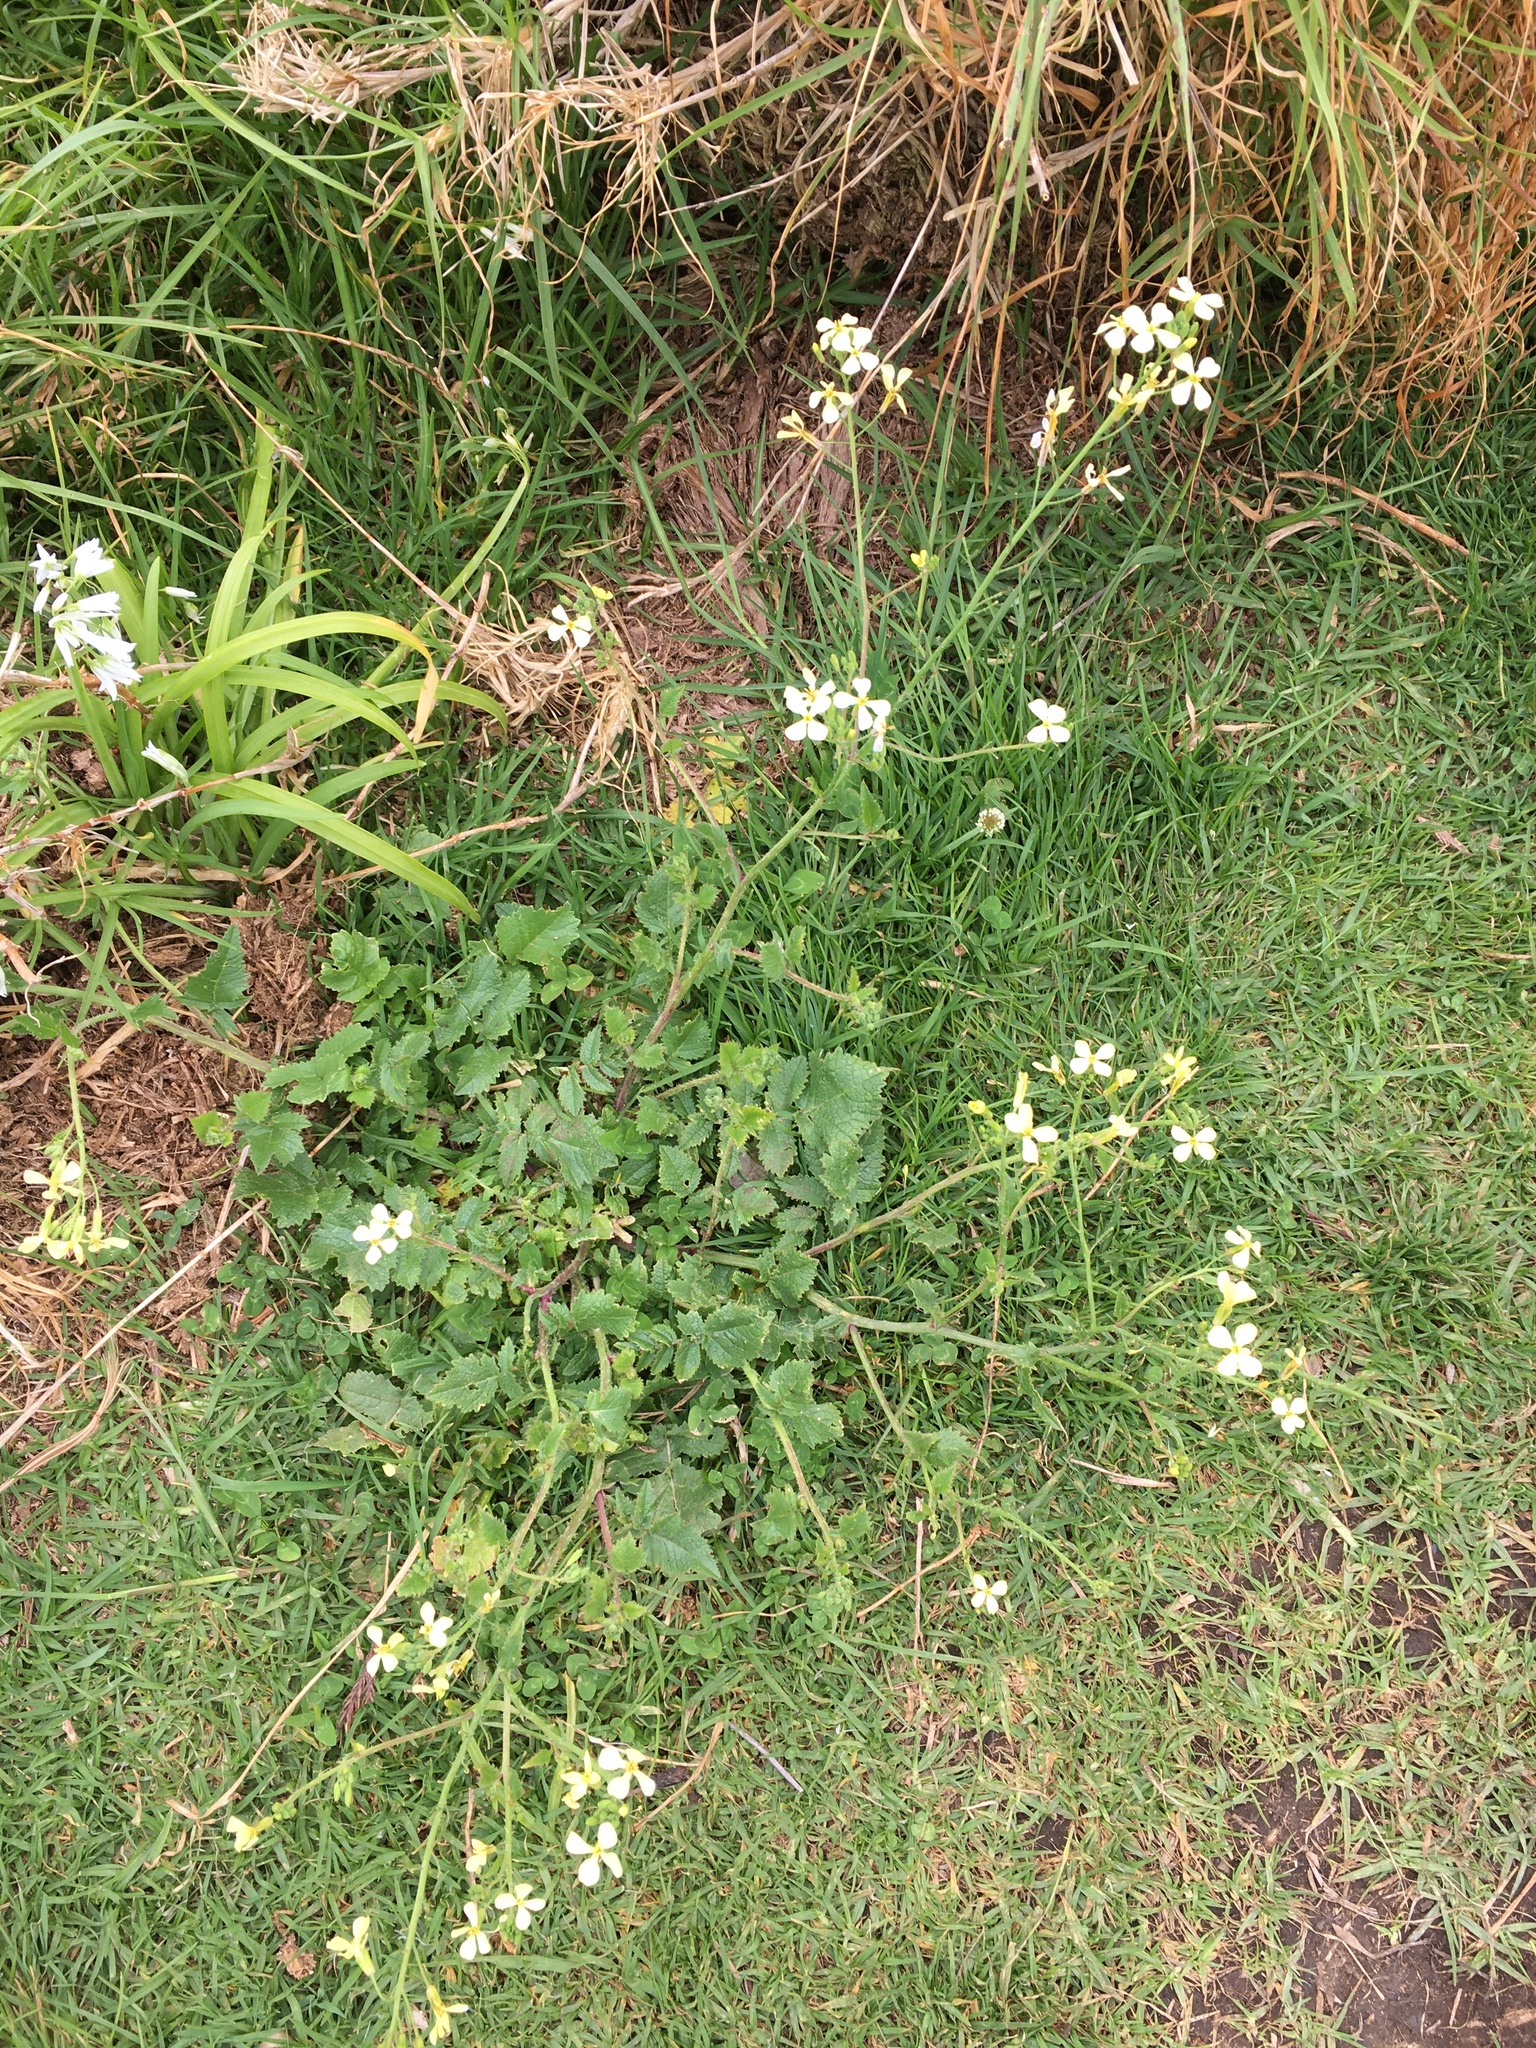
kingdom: Plantae
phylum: Tracheophyta
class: Magnoliopsida
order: Brassicales
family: Brassicaceae
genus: Raphanus
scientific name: Raphanus raphanistrum
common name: Wild radish
